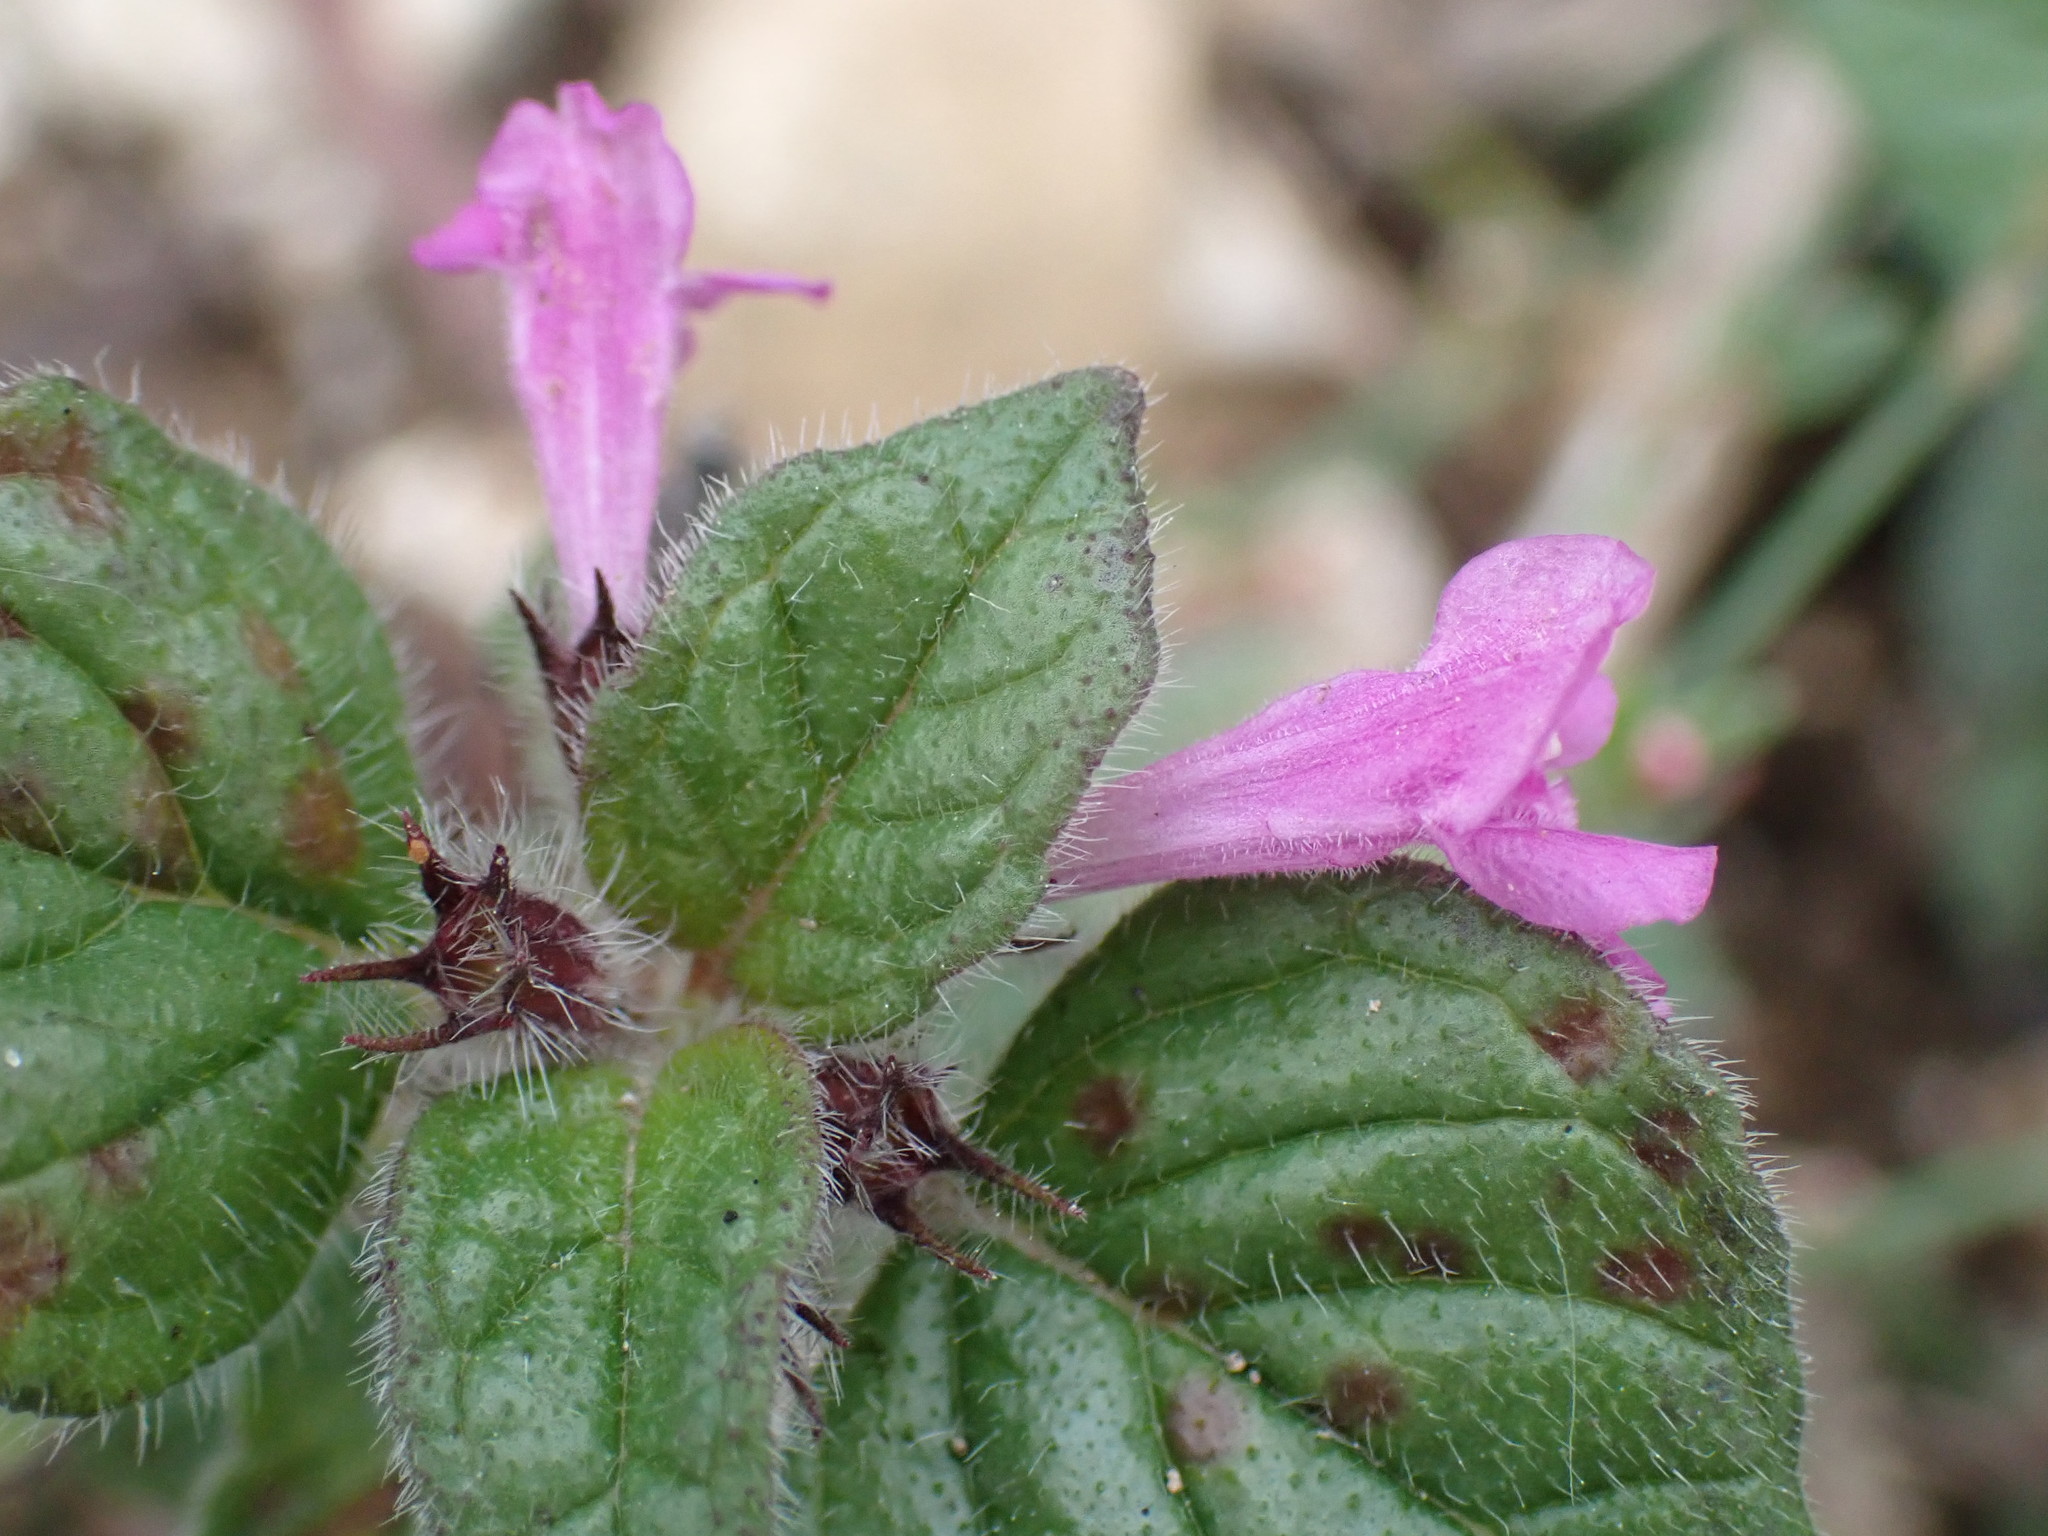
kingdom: Plantae
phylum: Tracheophyta
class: Magnoliopsida
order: Lamiales
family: Lamiaceae
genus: Clinopodium
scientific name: Clinopodium vulgare
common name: Wild basil
